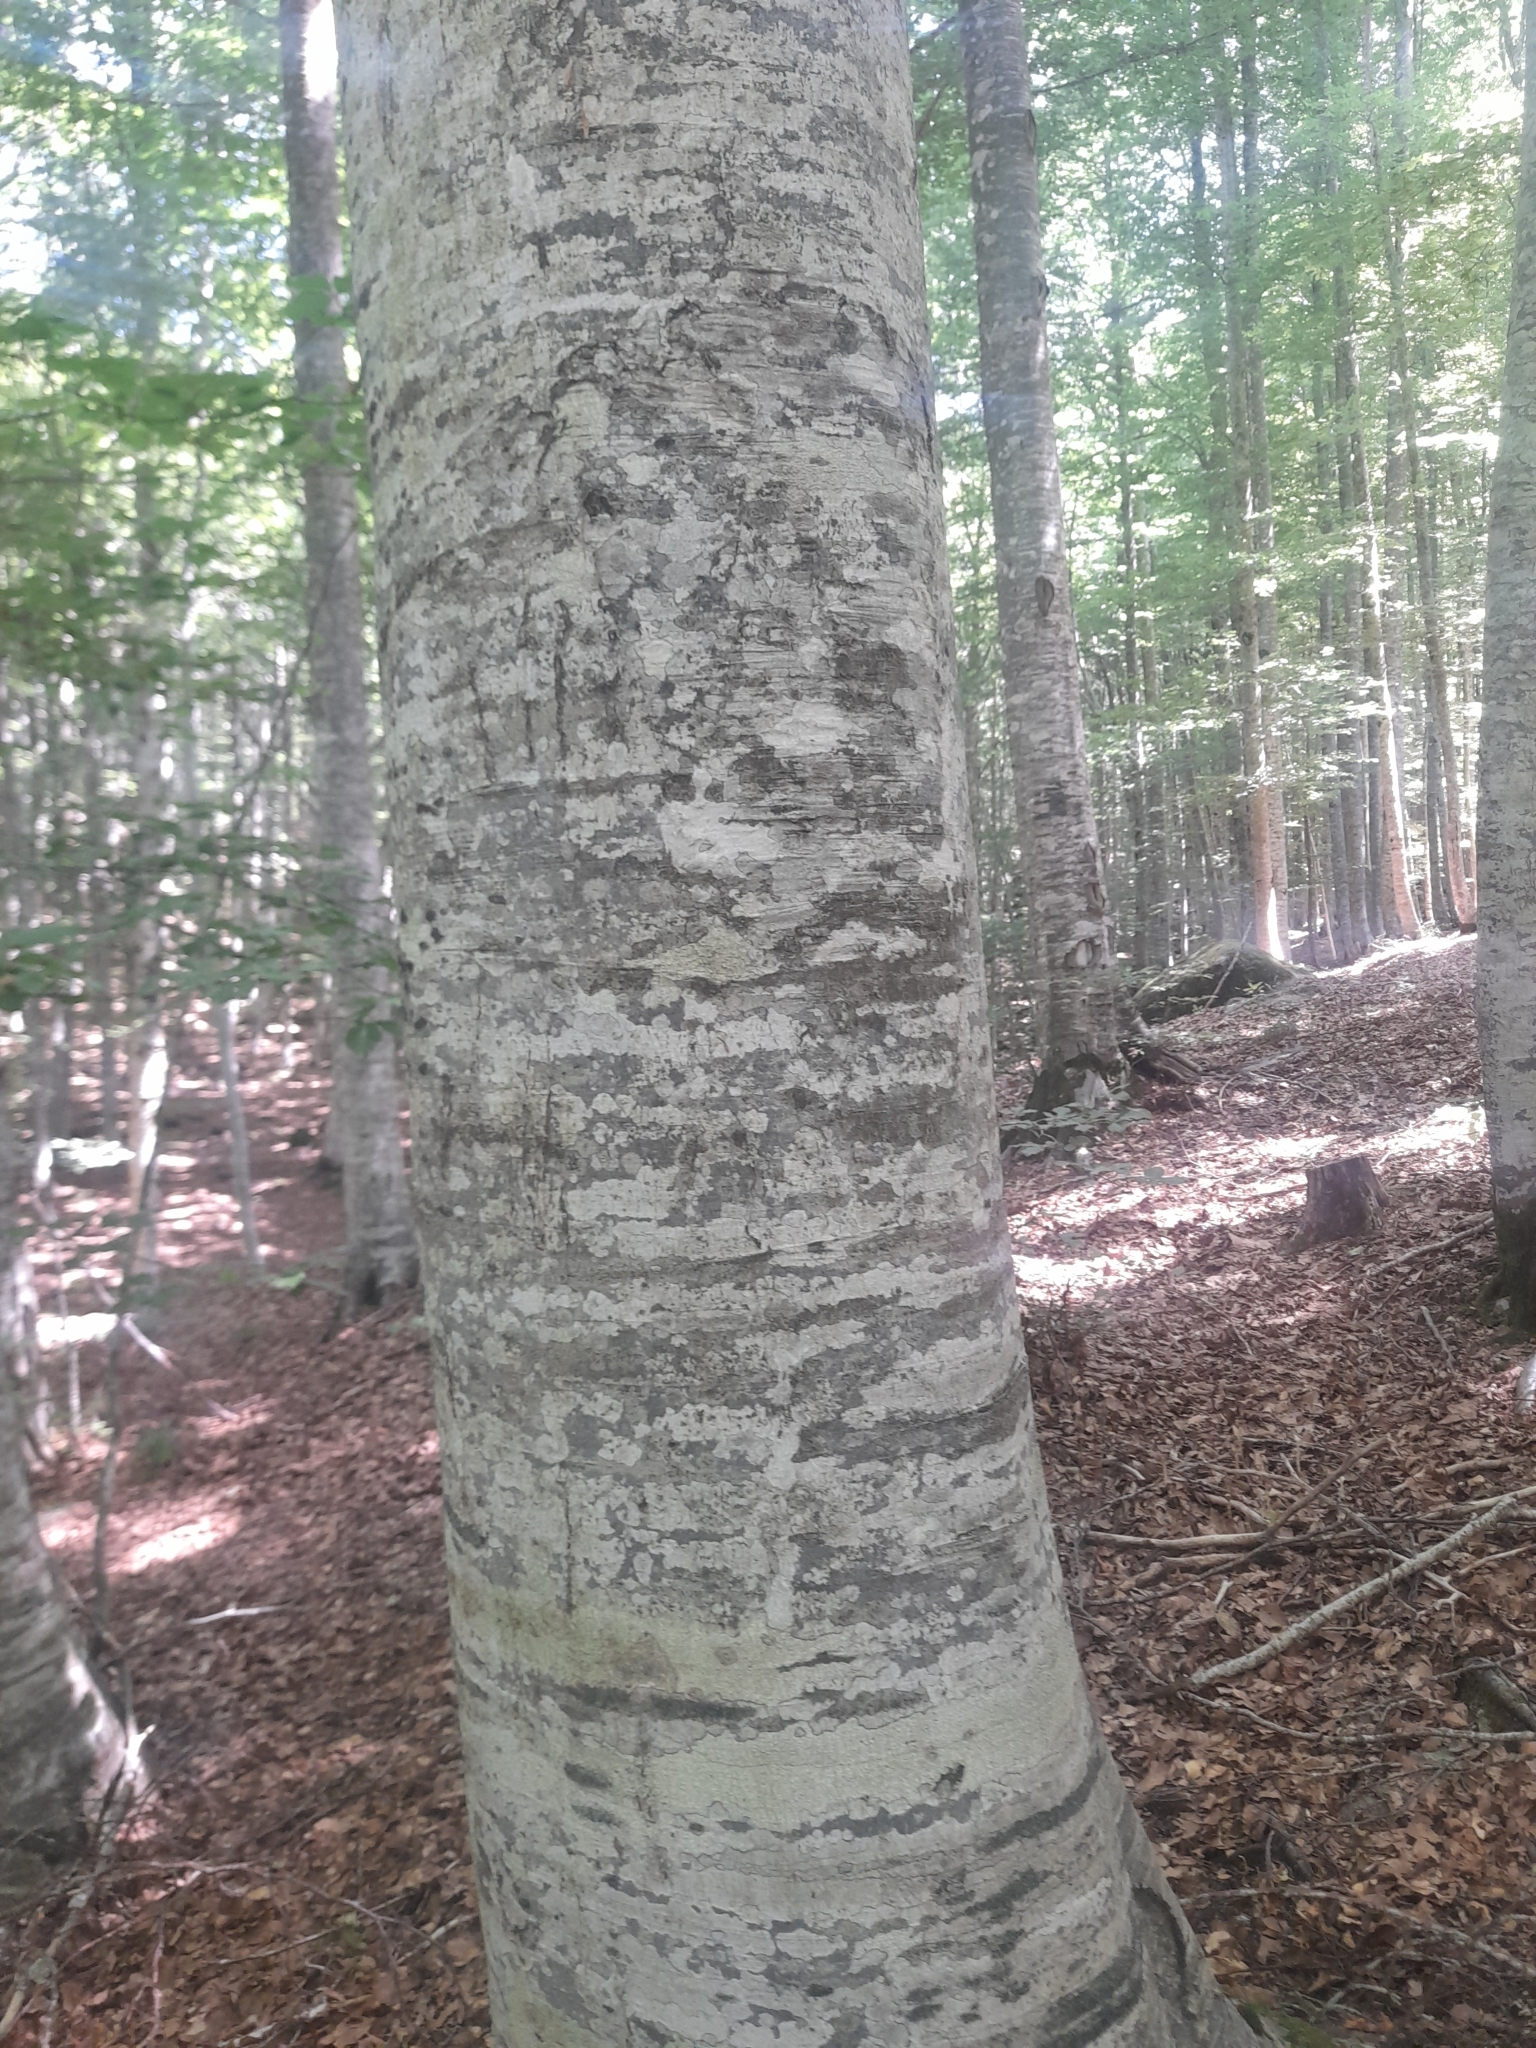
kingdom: Plantae
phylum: Tracheophyta
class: Magnoliopsida
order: Fagales
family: Fagaceae
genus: Fagus
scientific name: Fagus sylvatica
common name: Beech
